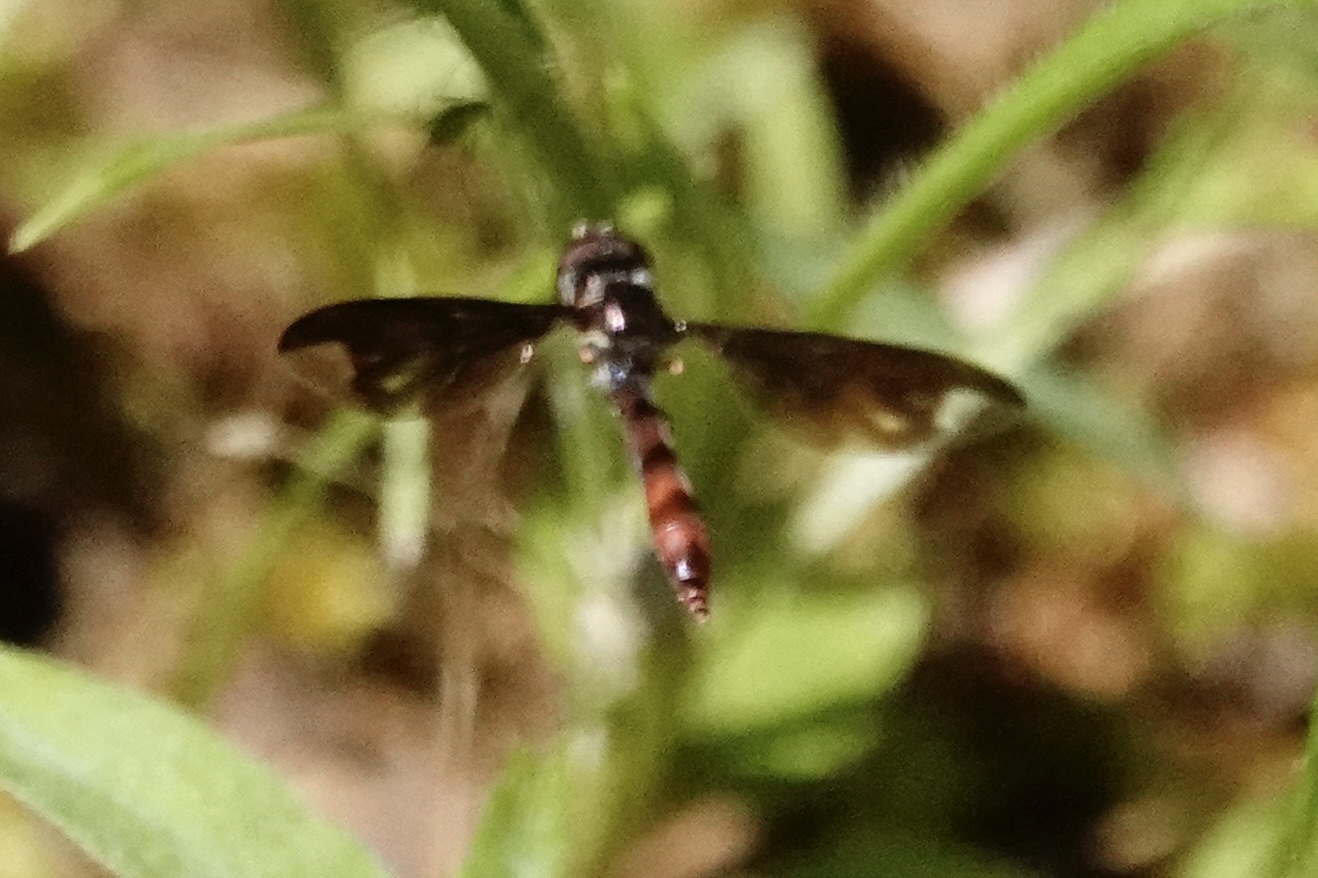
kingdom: Animalia
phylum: Arthropoda
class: Insecta
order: Diptera
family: Syrphidae
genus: Ocyptamus
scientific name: Ocyptamus fuscipennis
